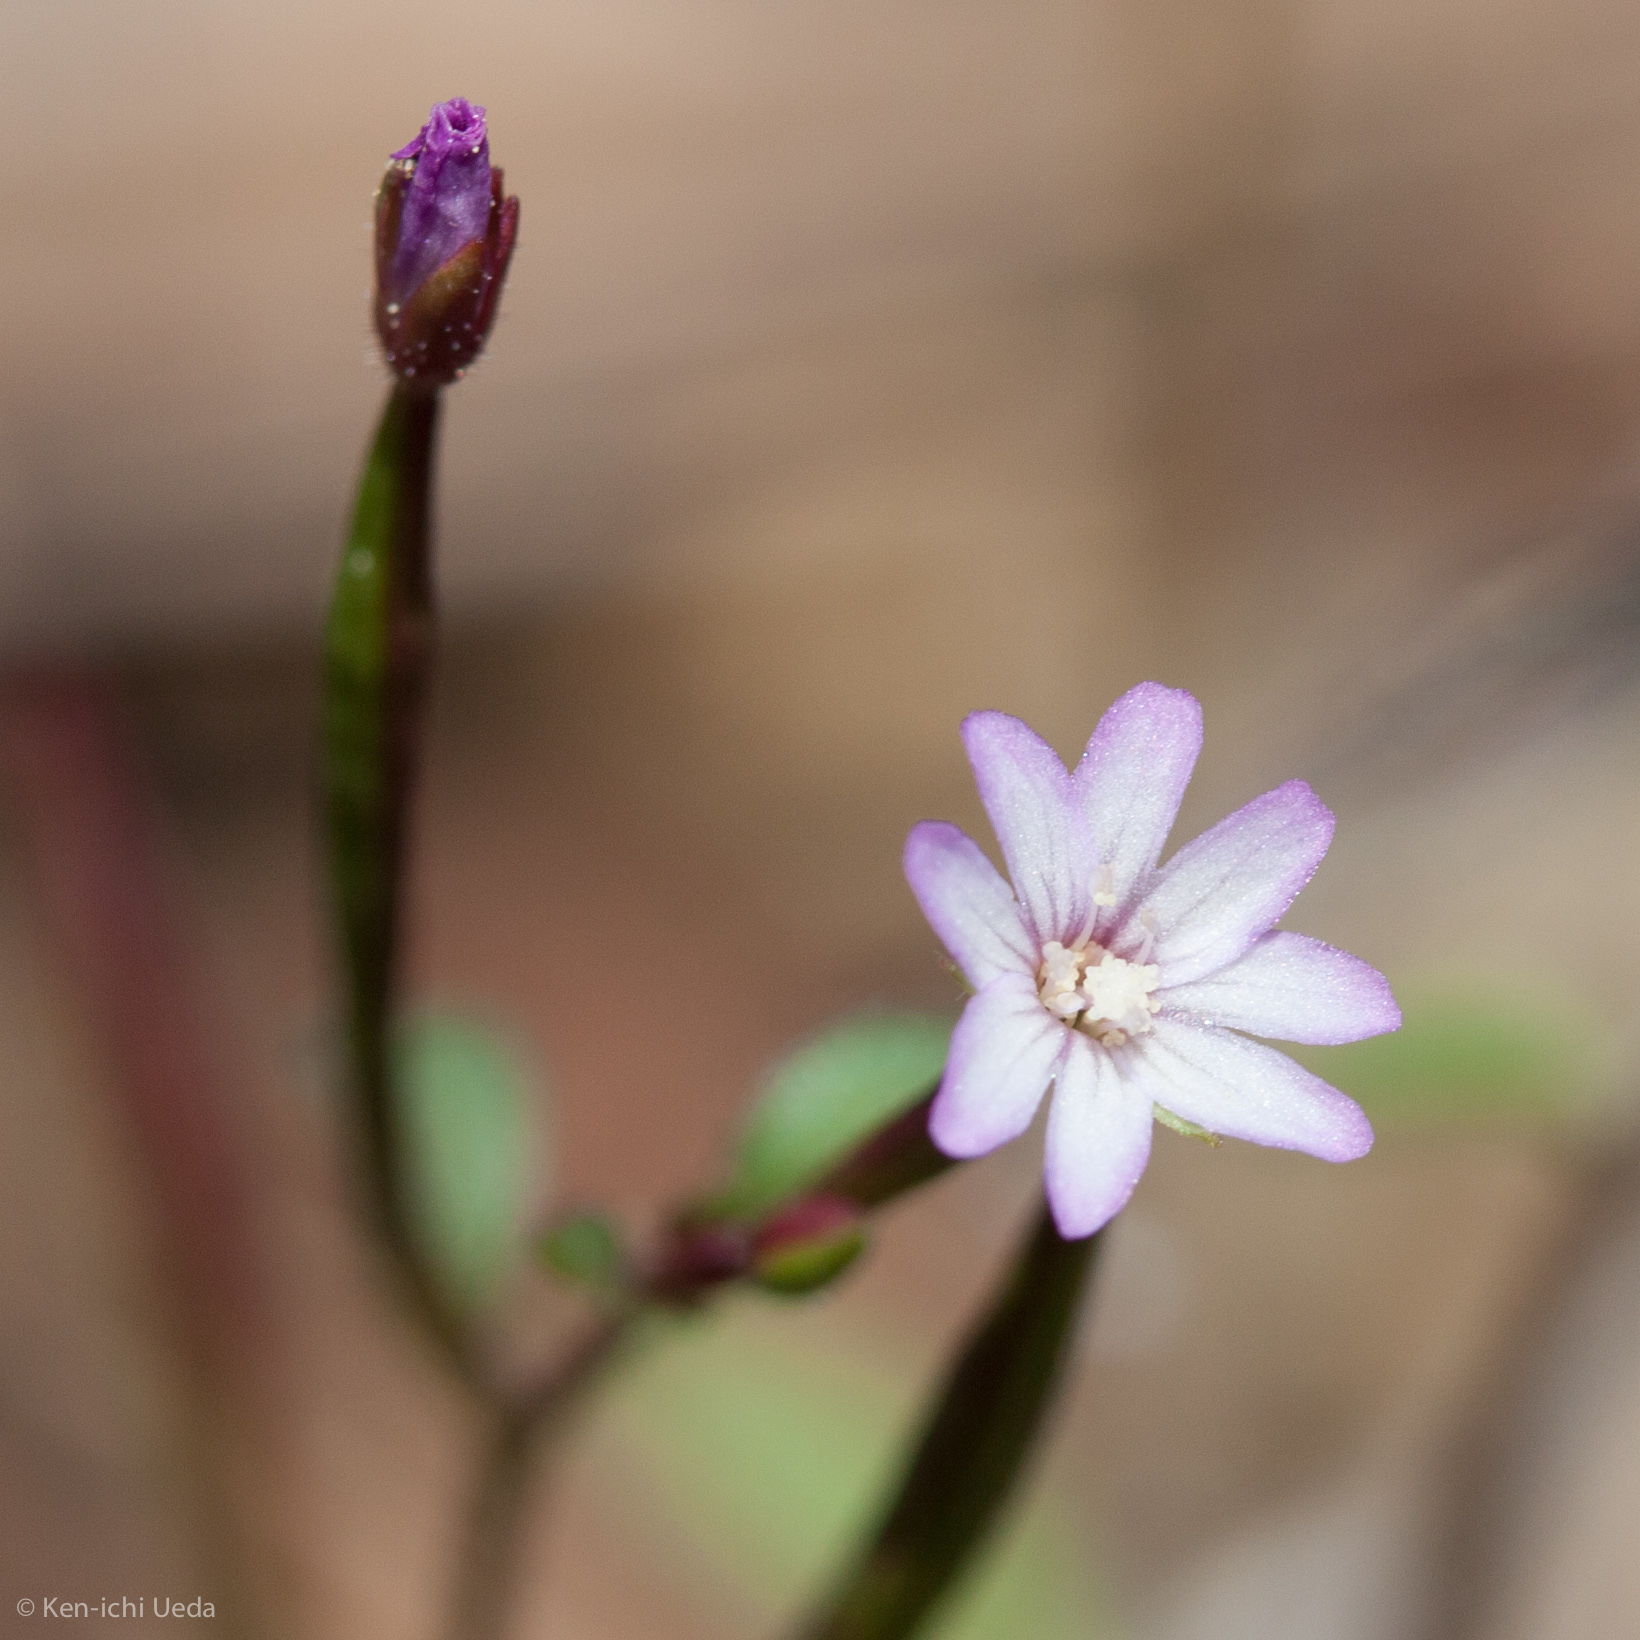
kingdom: Plantae
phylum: Tracheophyta
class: Magnoliopsida
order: Myrtales
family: Onagraceae
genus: Epilobium
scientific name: Epilobium minutum
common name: Chaparral willowherb
